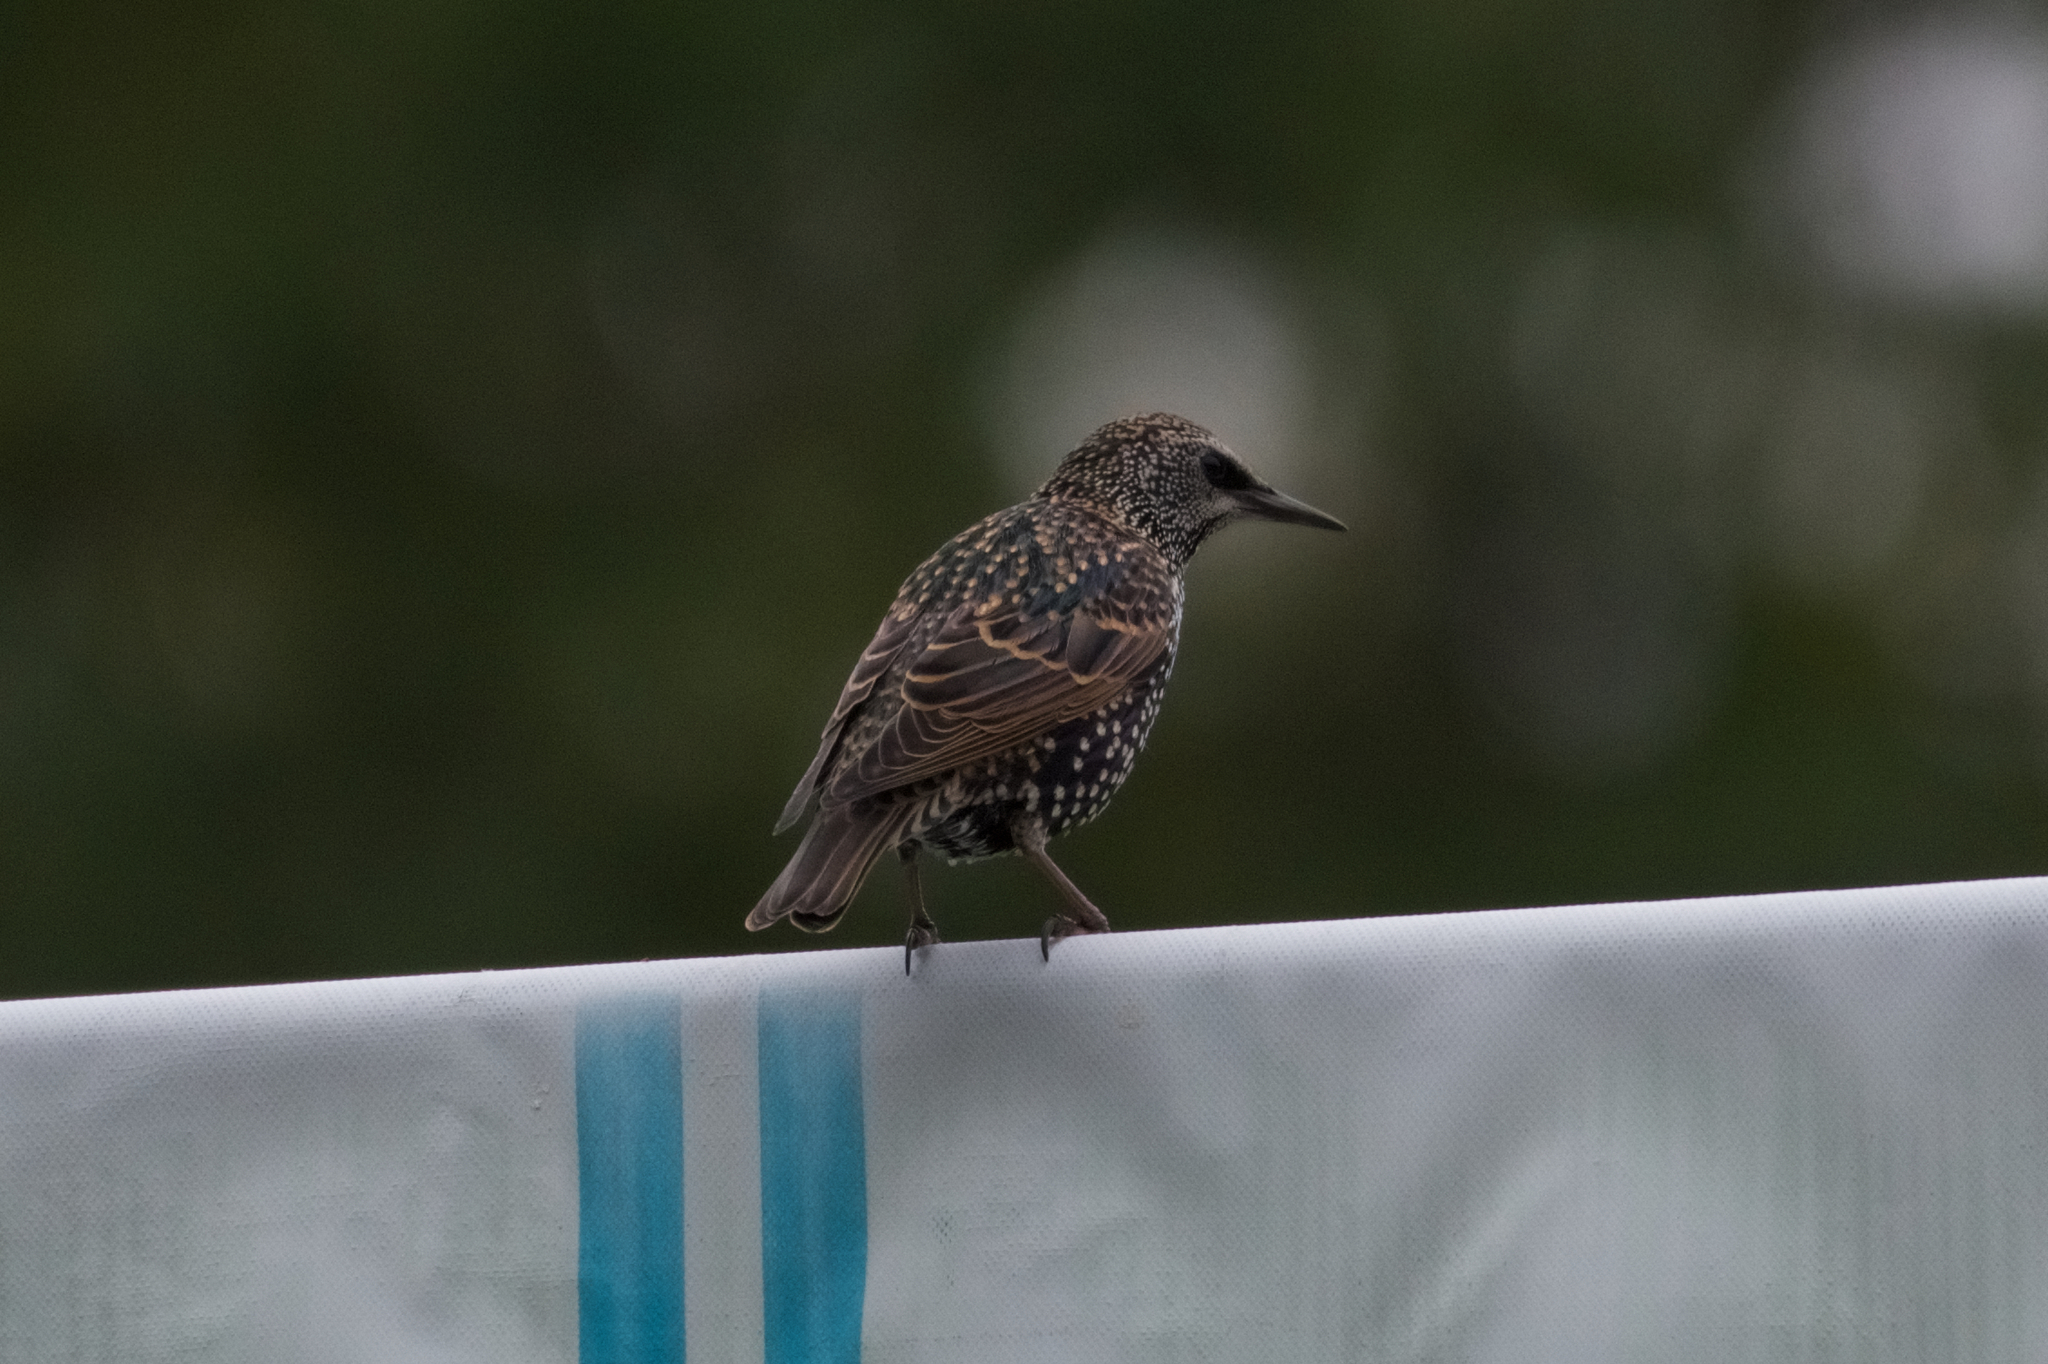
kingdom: Animalia
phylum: Chordata
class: Aves
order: Passeriformes
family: Sturnidae
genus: Sturnus
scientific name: Sturnus vulgaris
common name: Common starling
